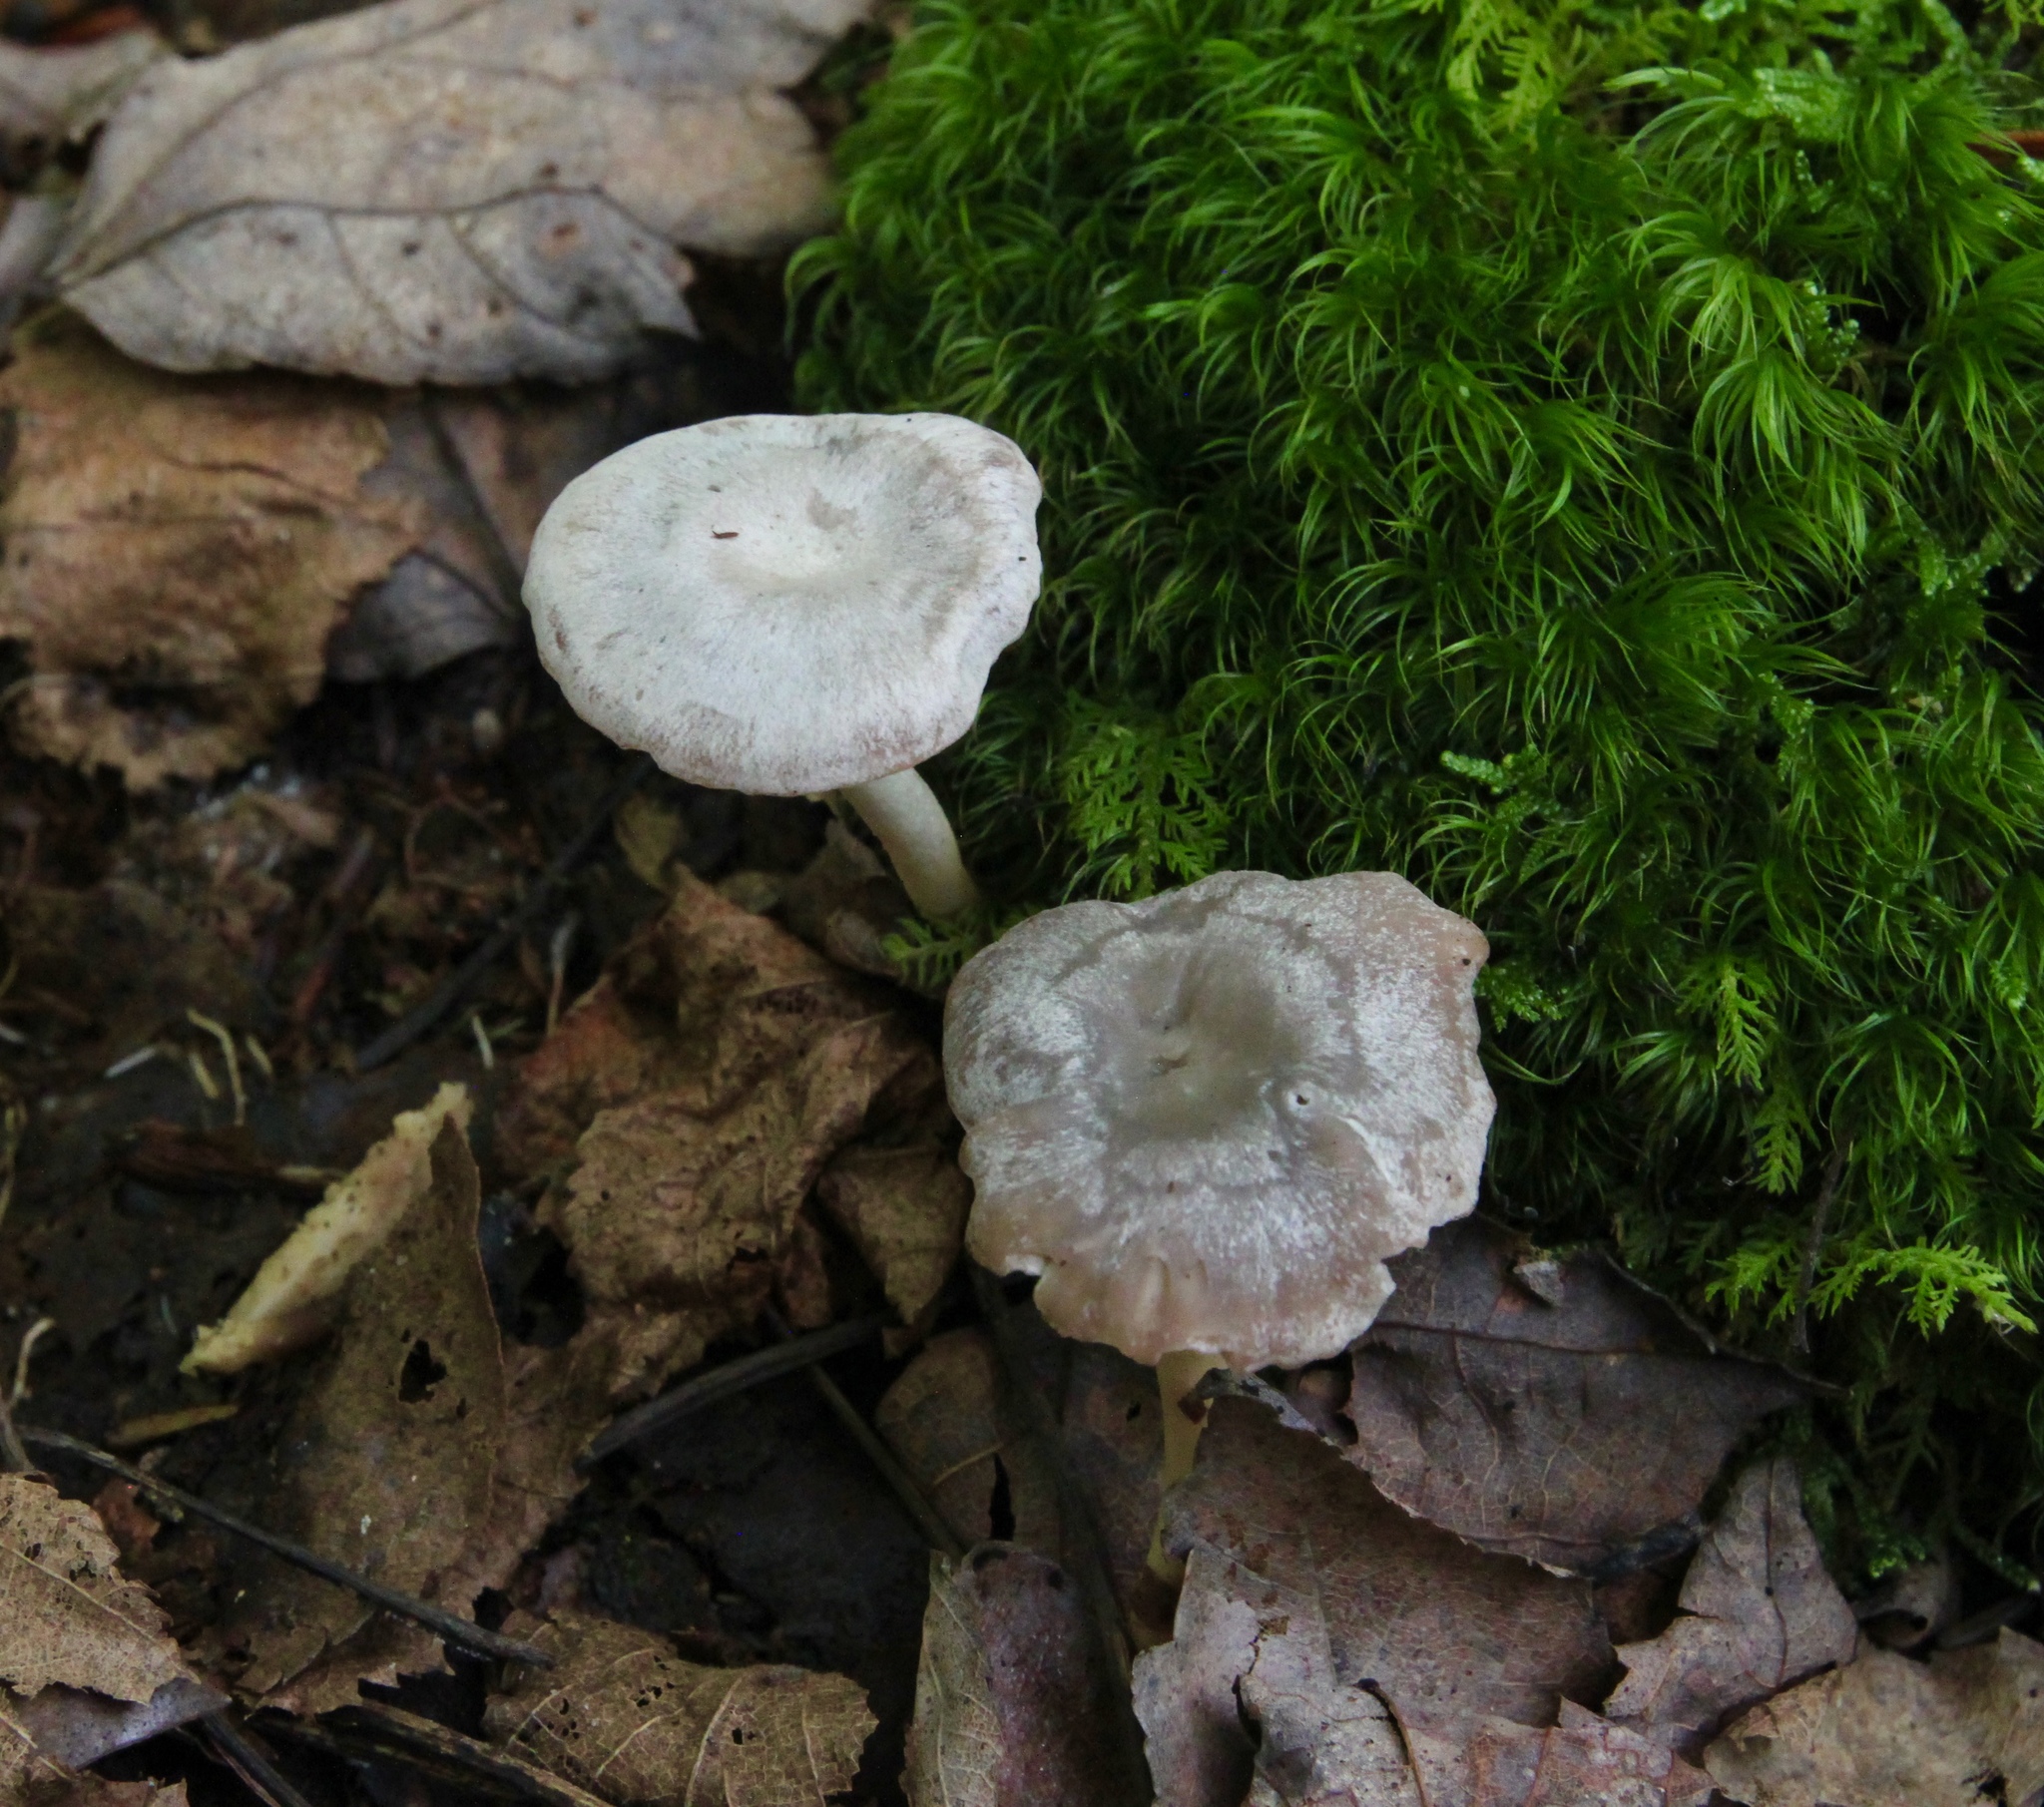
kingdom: Fungi
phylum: Basidiomycota
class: Agaricomycetes
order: Agaricales
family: Hygrophoraceae
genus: Cuphophyllus
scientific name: Cuphophyllus canescens
